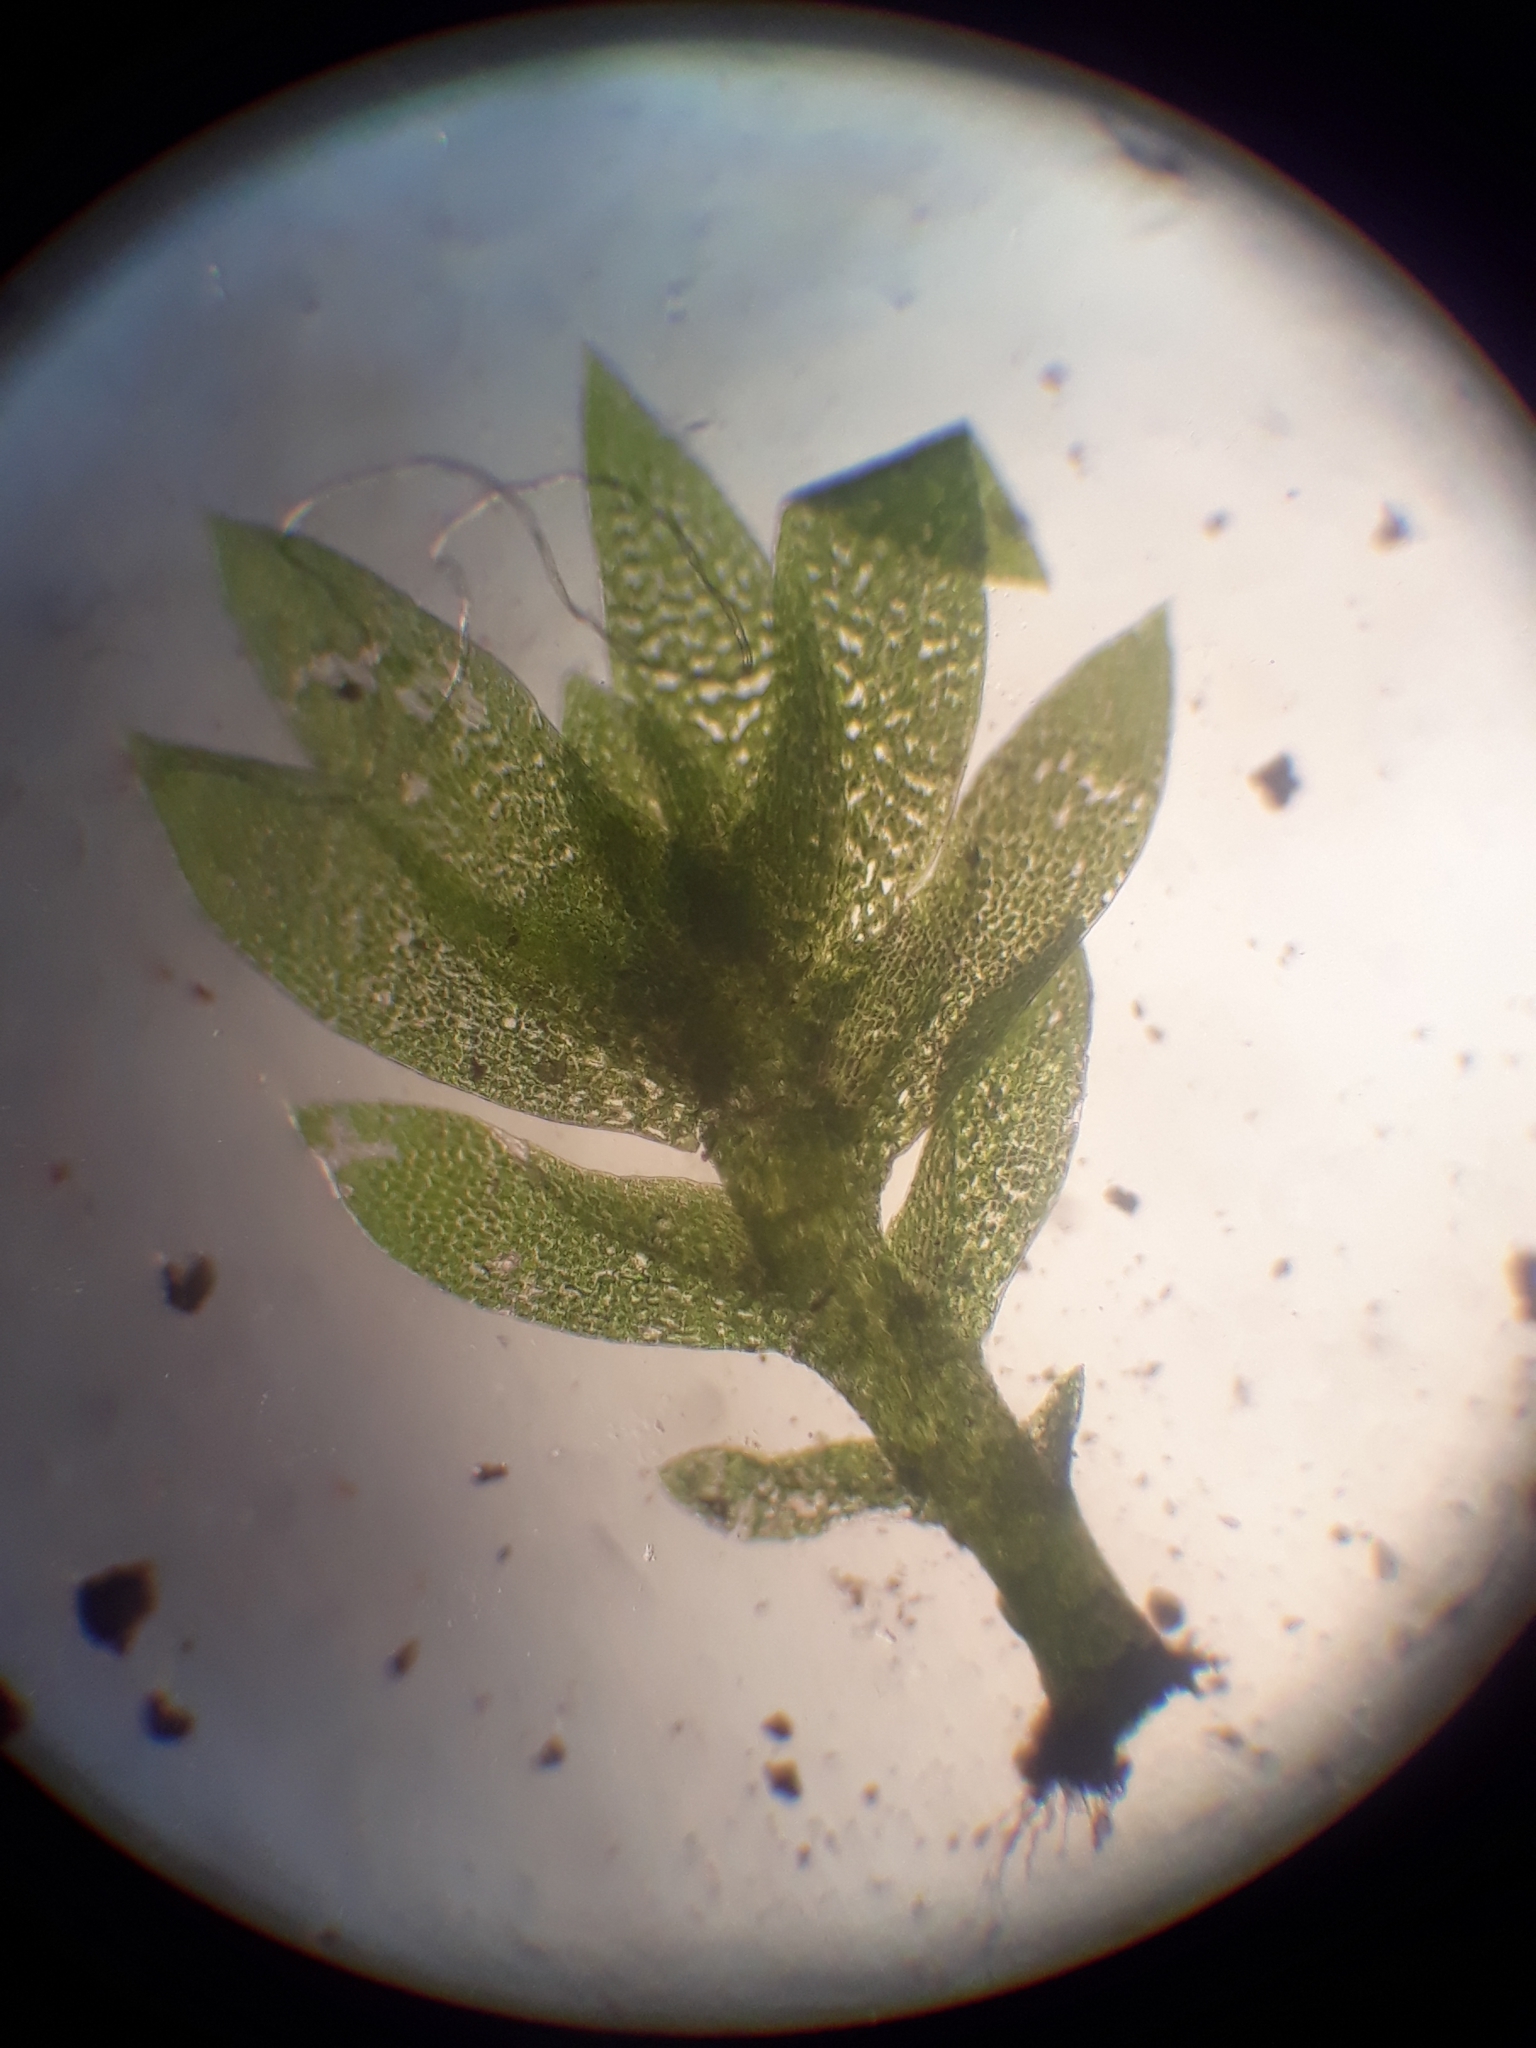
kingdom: Plantae
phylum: Bryophyta
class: Bryopsida
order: Dicranales
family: Fissidentaceae
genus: Fissidens
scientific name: Fissidens dealbatus
